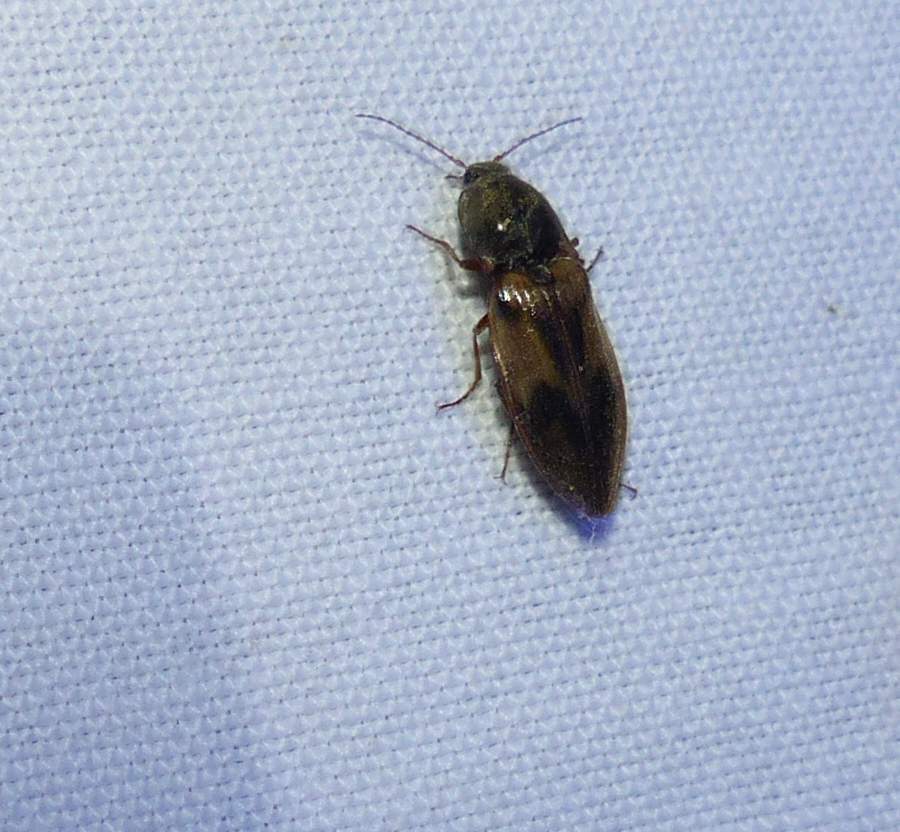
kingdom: Animalia
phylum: Arthropoda
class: Insecta
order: Coleoptera
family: Elateridae
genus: Stropenron
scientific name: Stropenron hieroglyphica
